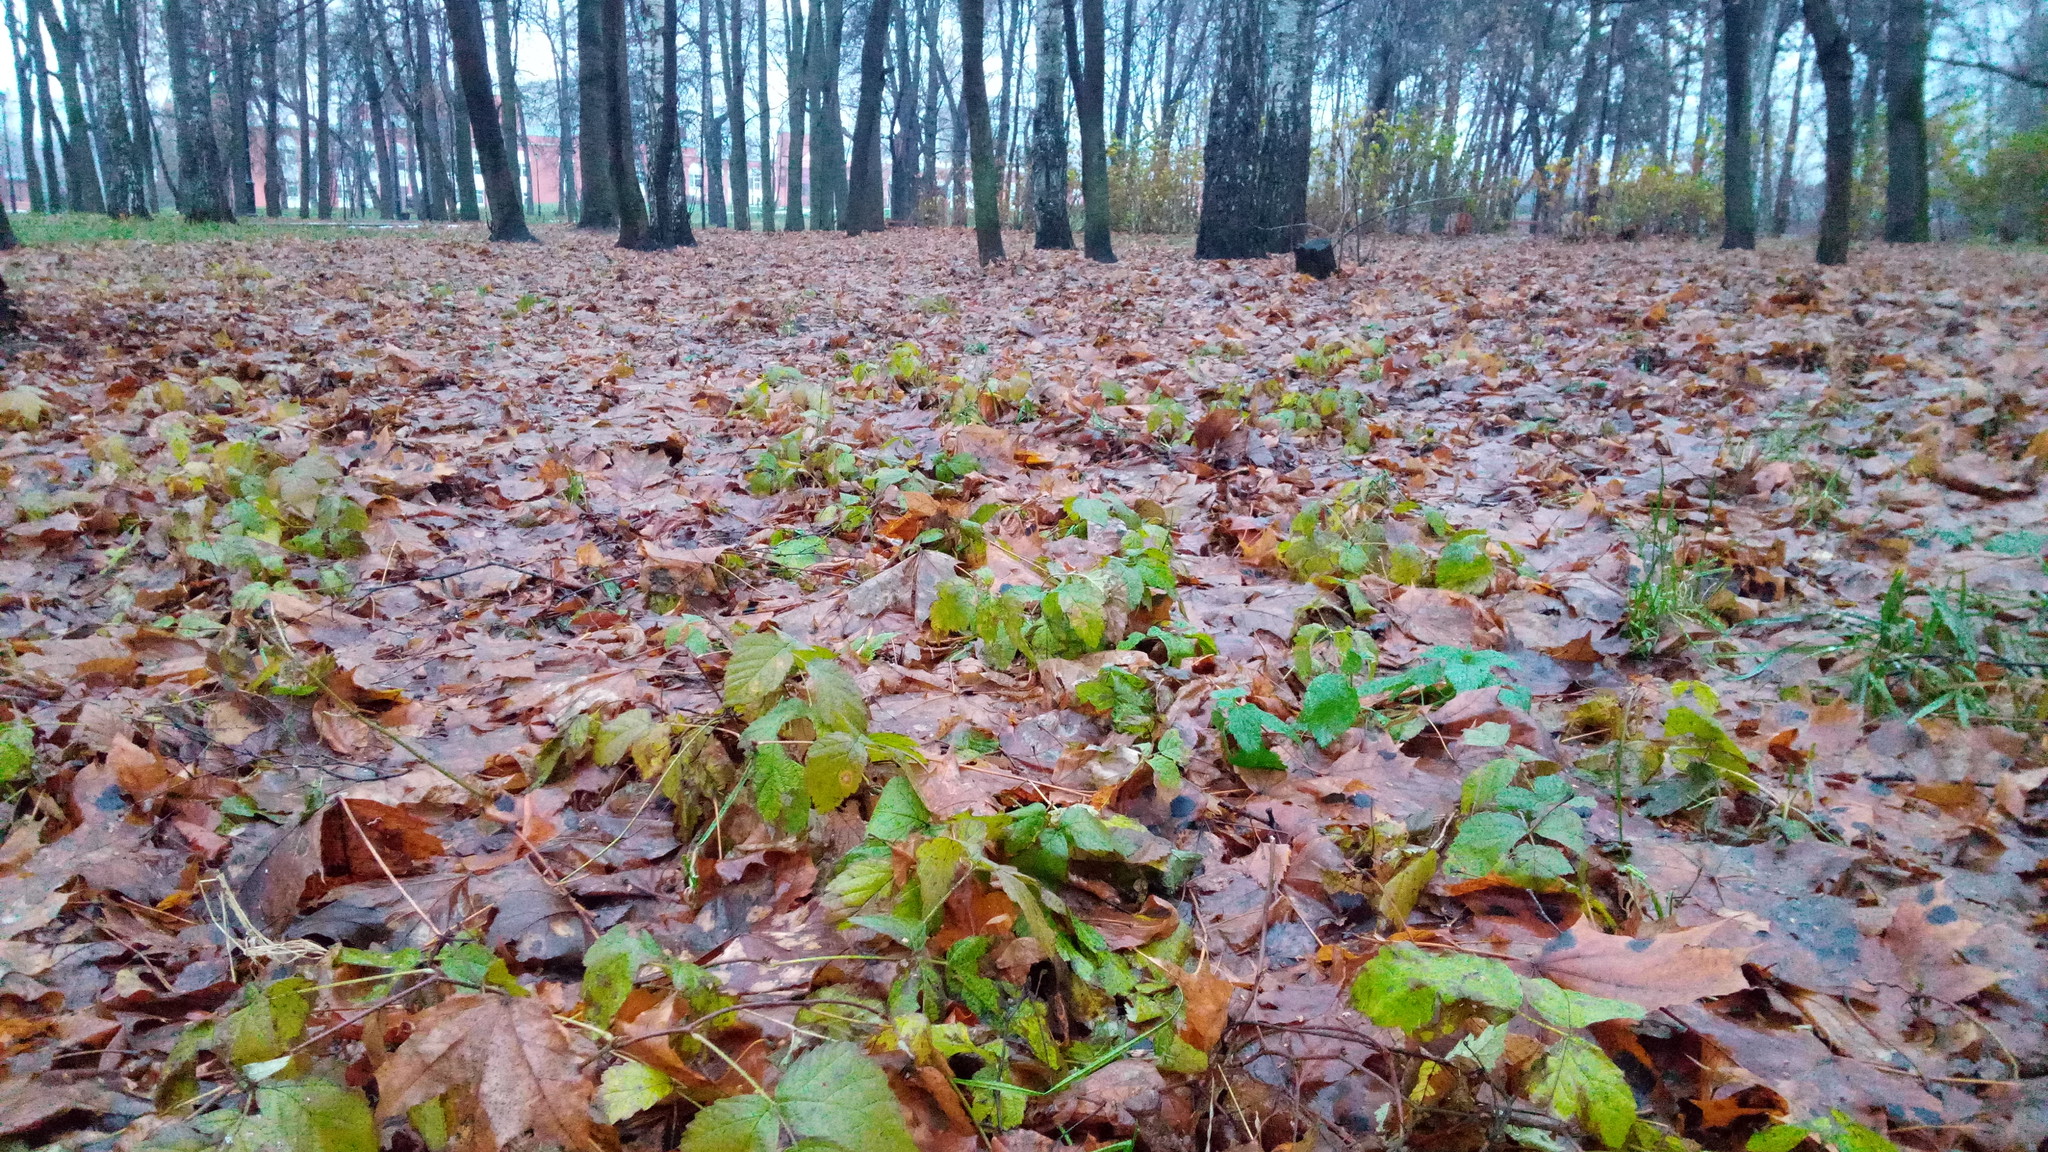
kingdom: Plantae
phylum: Tracheophyta
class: Magnoliopsida
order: Rosales
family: Rosaceae
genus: Rubus
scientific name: Rubus saxatilis
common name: Stone bramble
